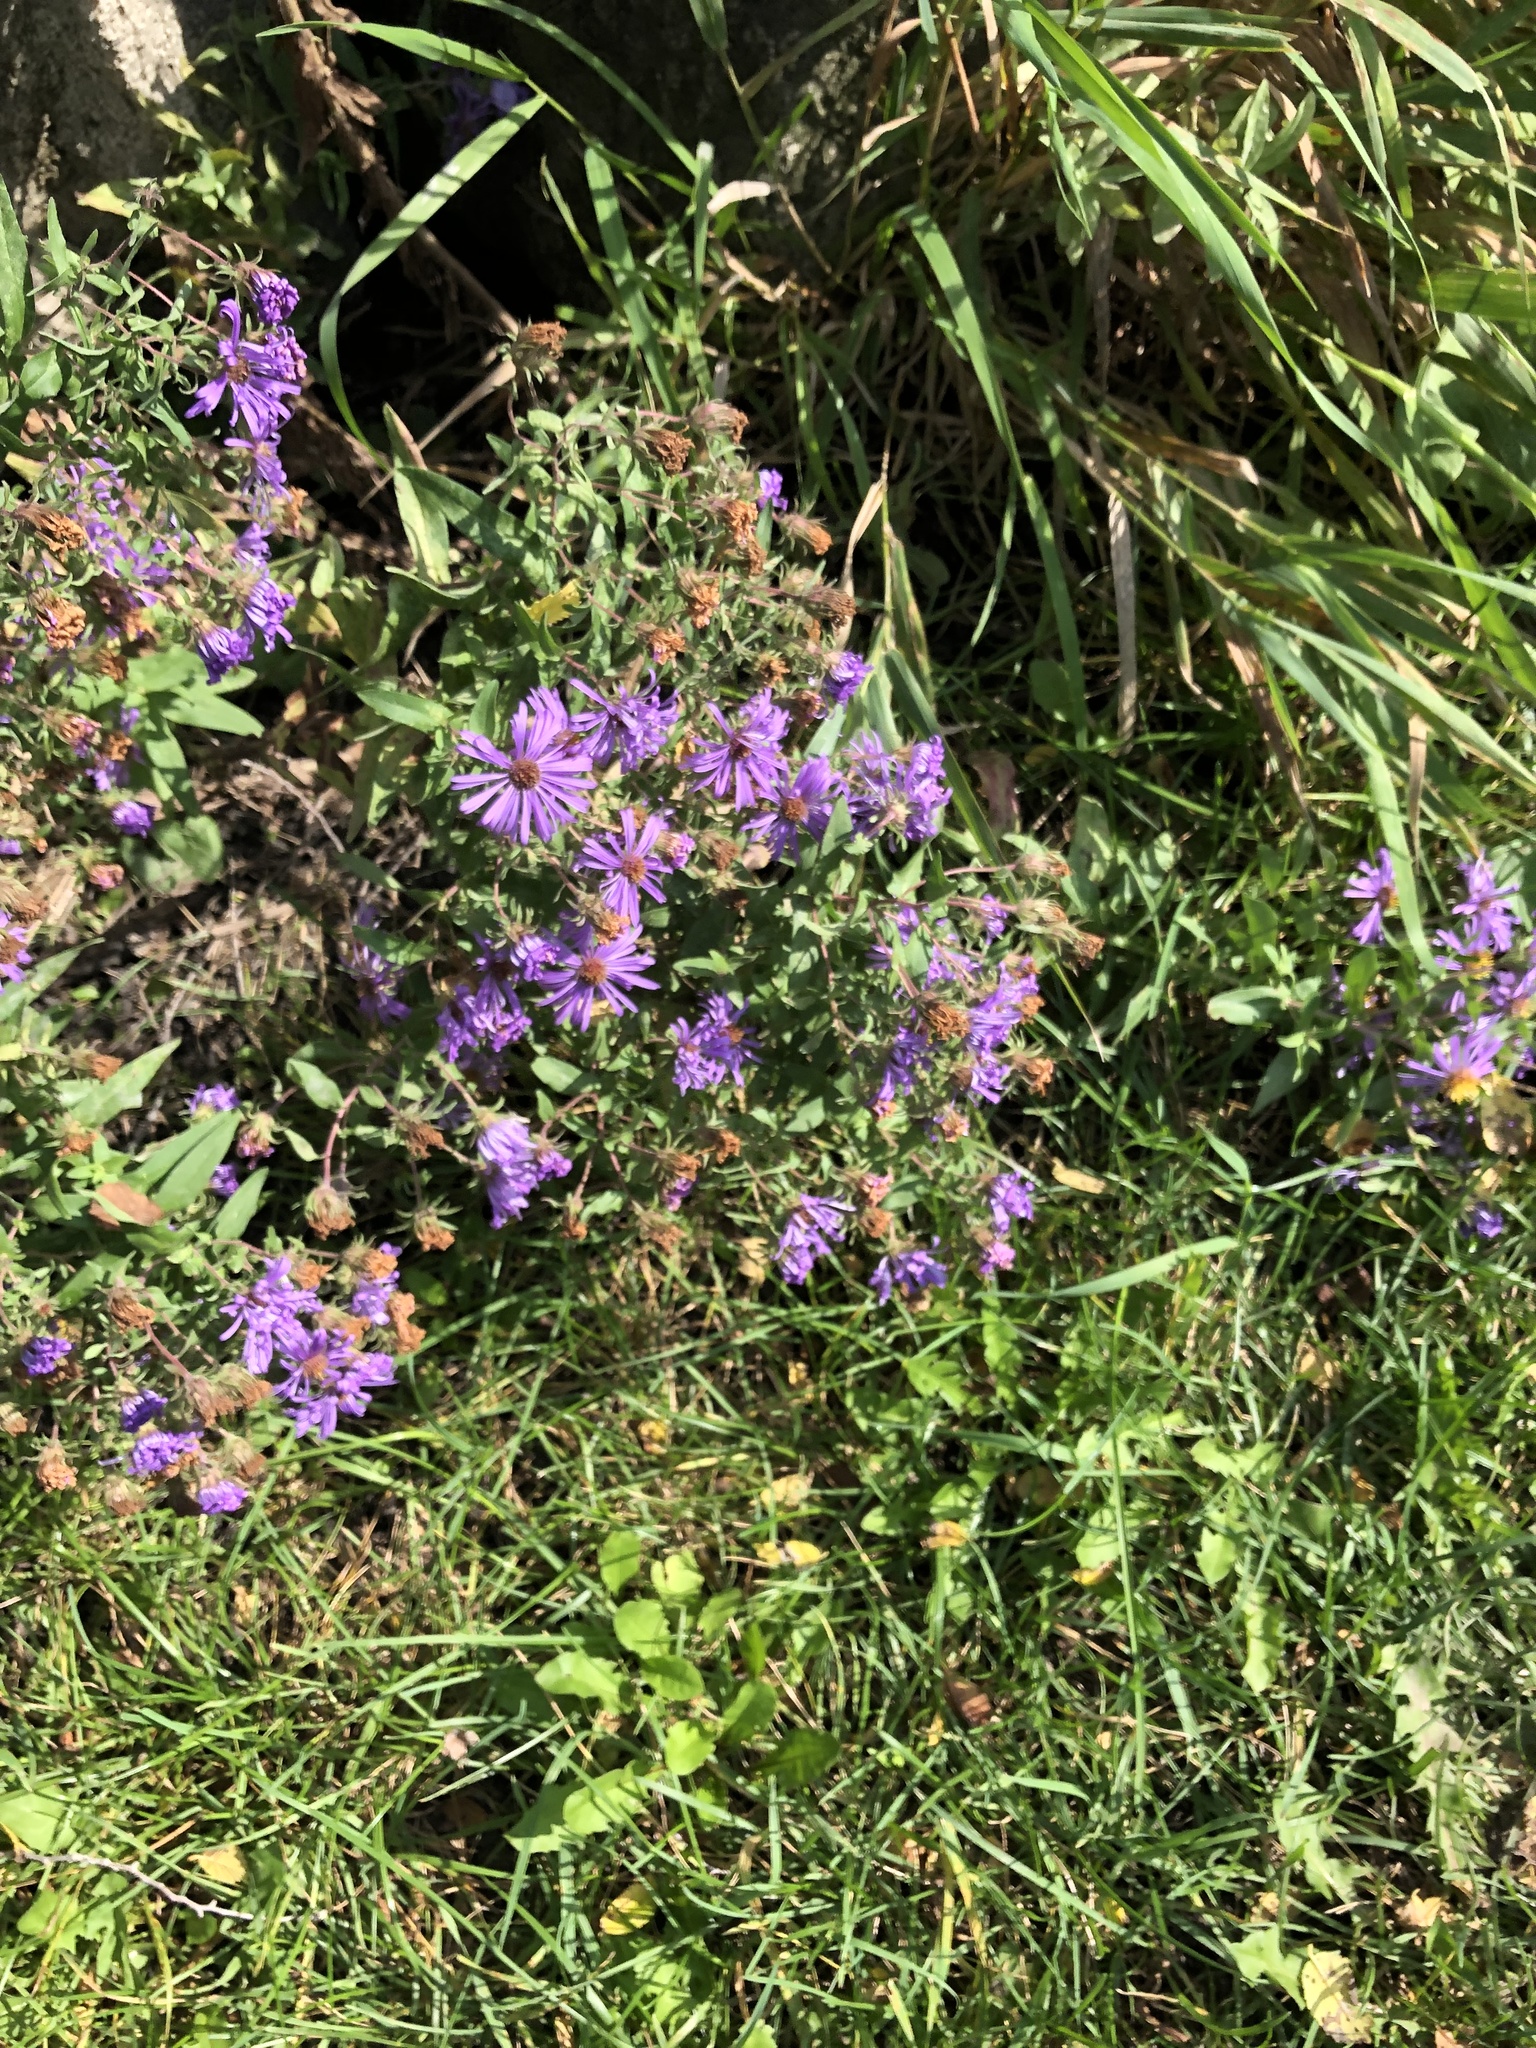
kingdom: Plantae
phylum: Tracheophyta
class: Magnoliopsida
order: Asterales
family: Asteraceae
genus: Symphyotrichum
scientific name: Symphyotrichum novae-angliae
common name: Michaelmas daisy
